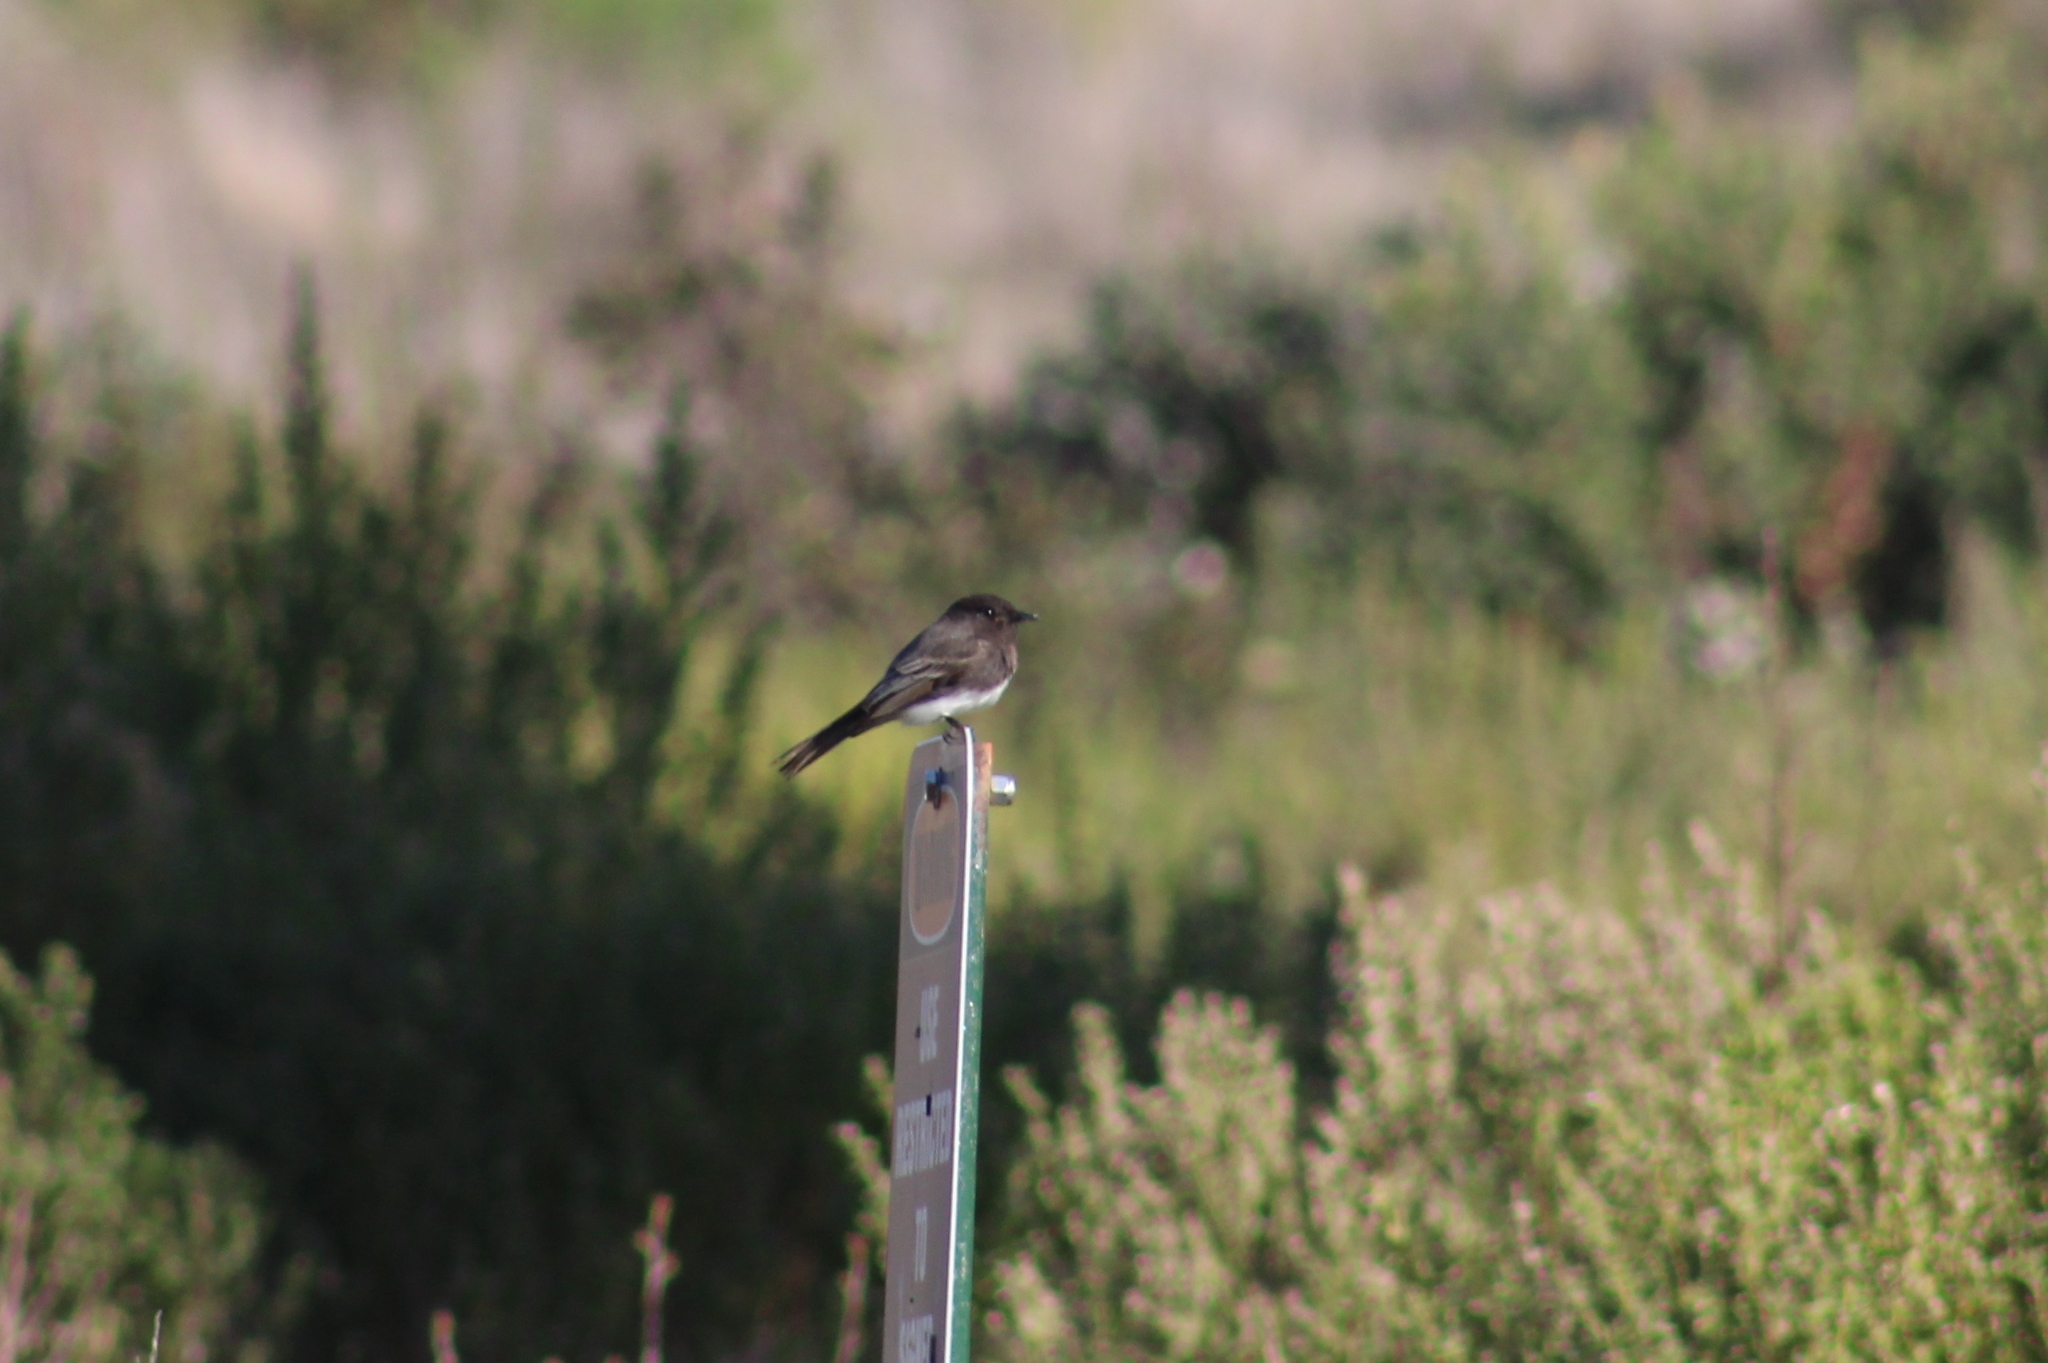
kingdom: Animalia
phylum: Chordata
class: Aves
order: Passeriformes
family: Tyrannidae
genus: Sayornis
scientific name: Sayornis nigricans
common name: Black phoebe
